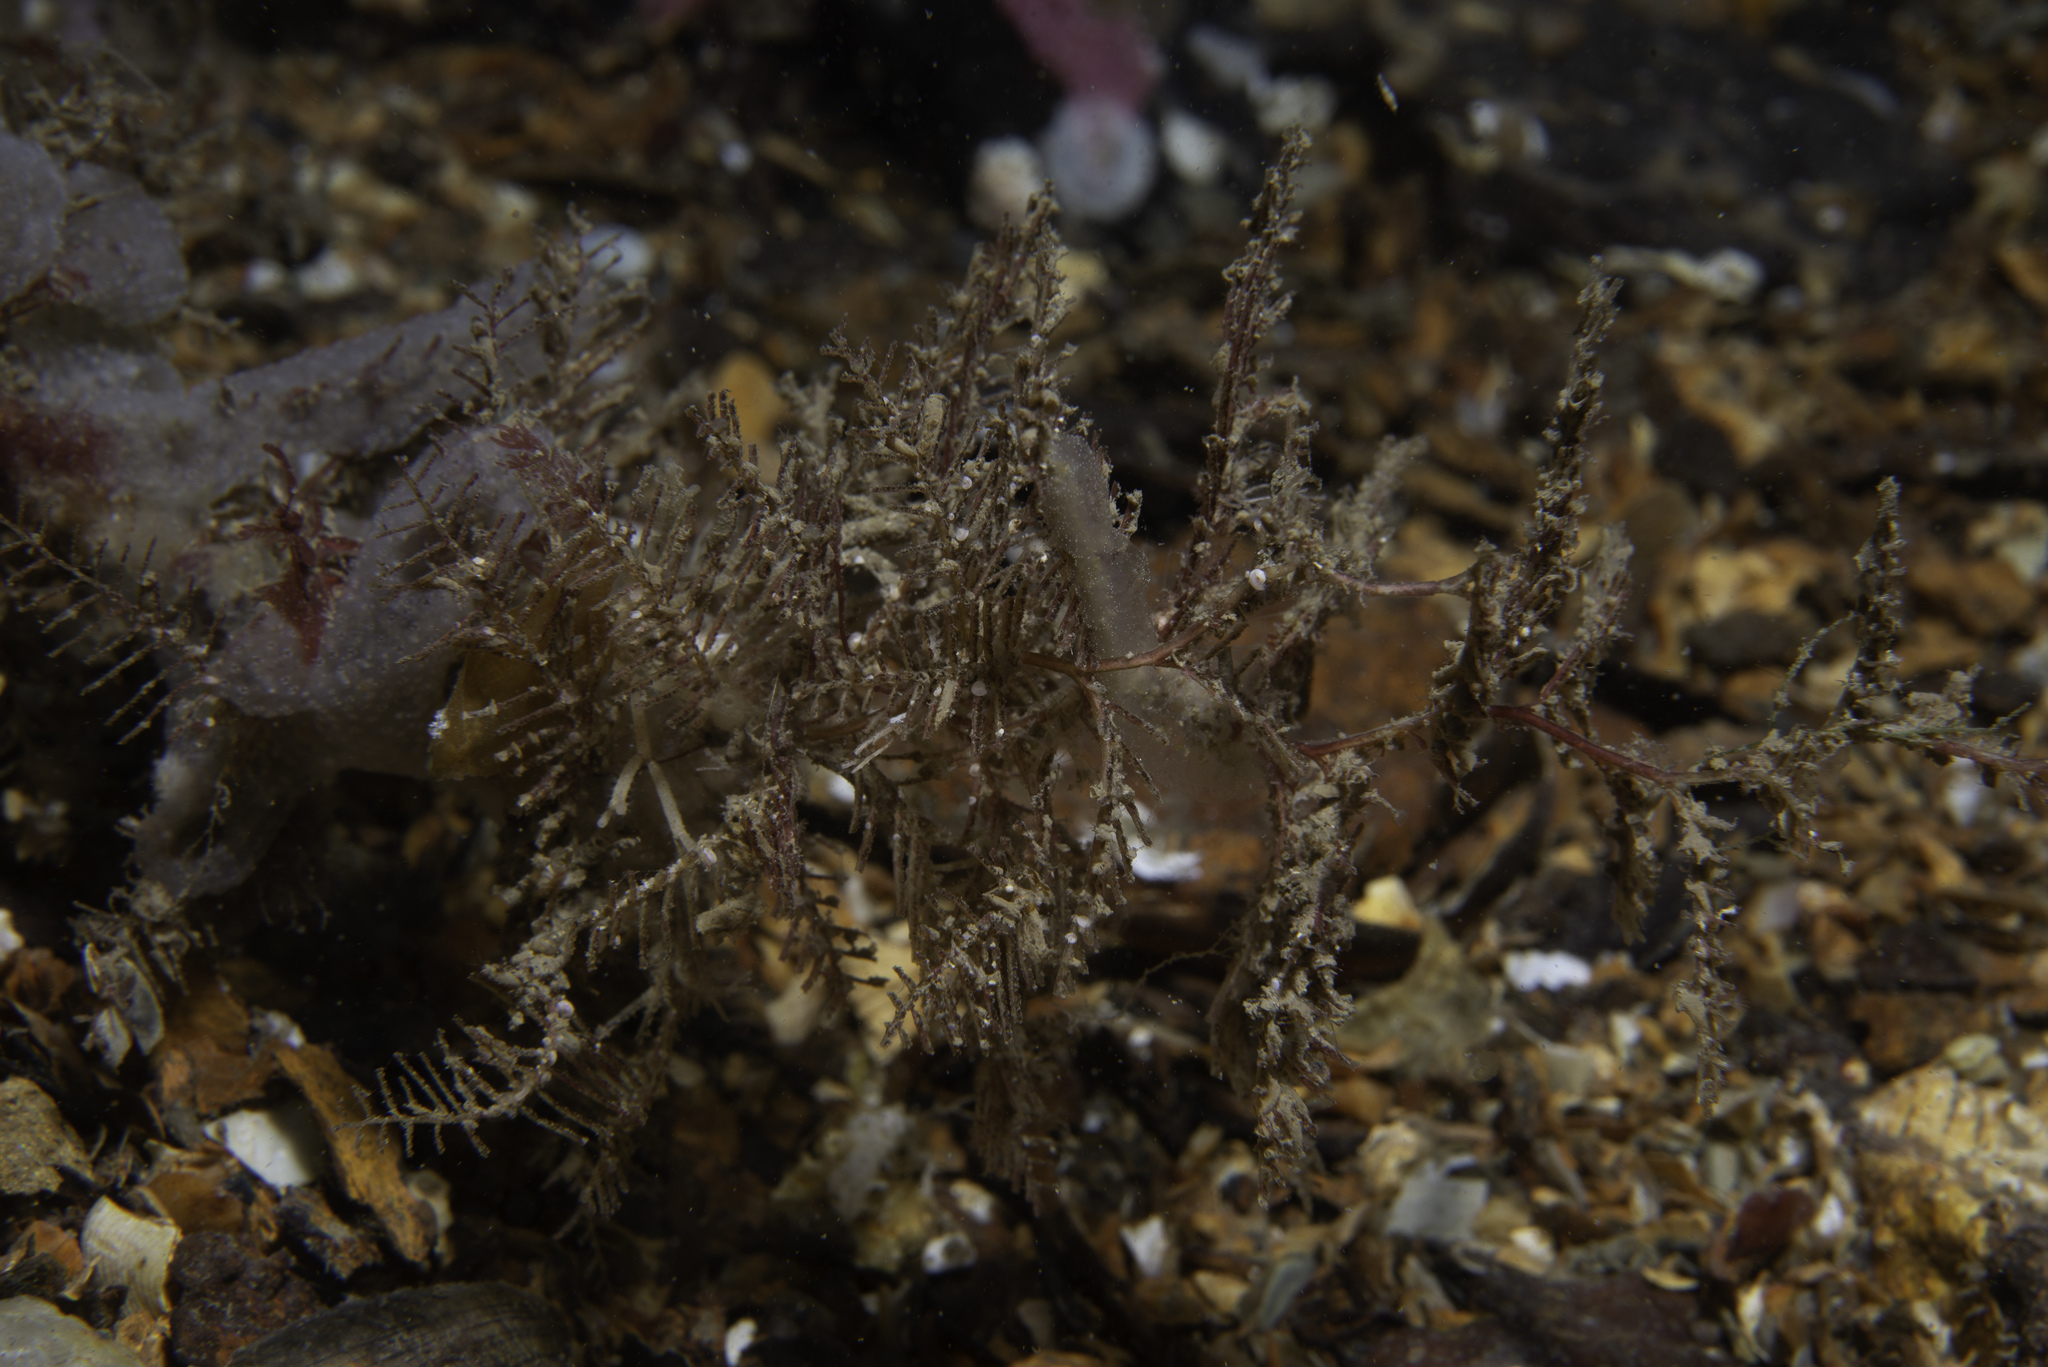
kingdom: Animalia
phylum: Cnidaria
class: Hydrozoa
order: Leptothecata
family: Sertulariidae
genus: Hydrallmania
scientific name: Hydrallmania falcata
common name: Sickle hydroid
